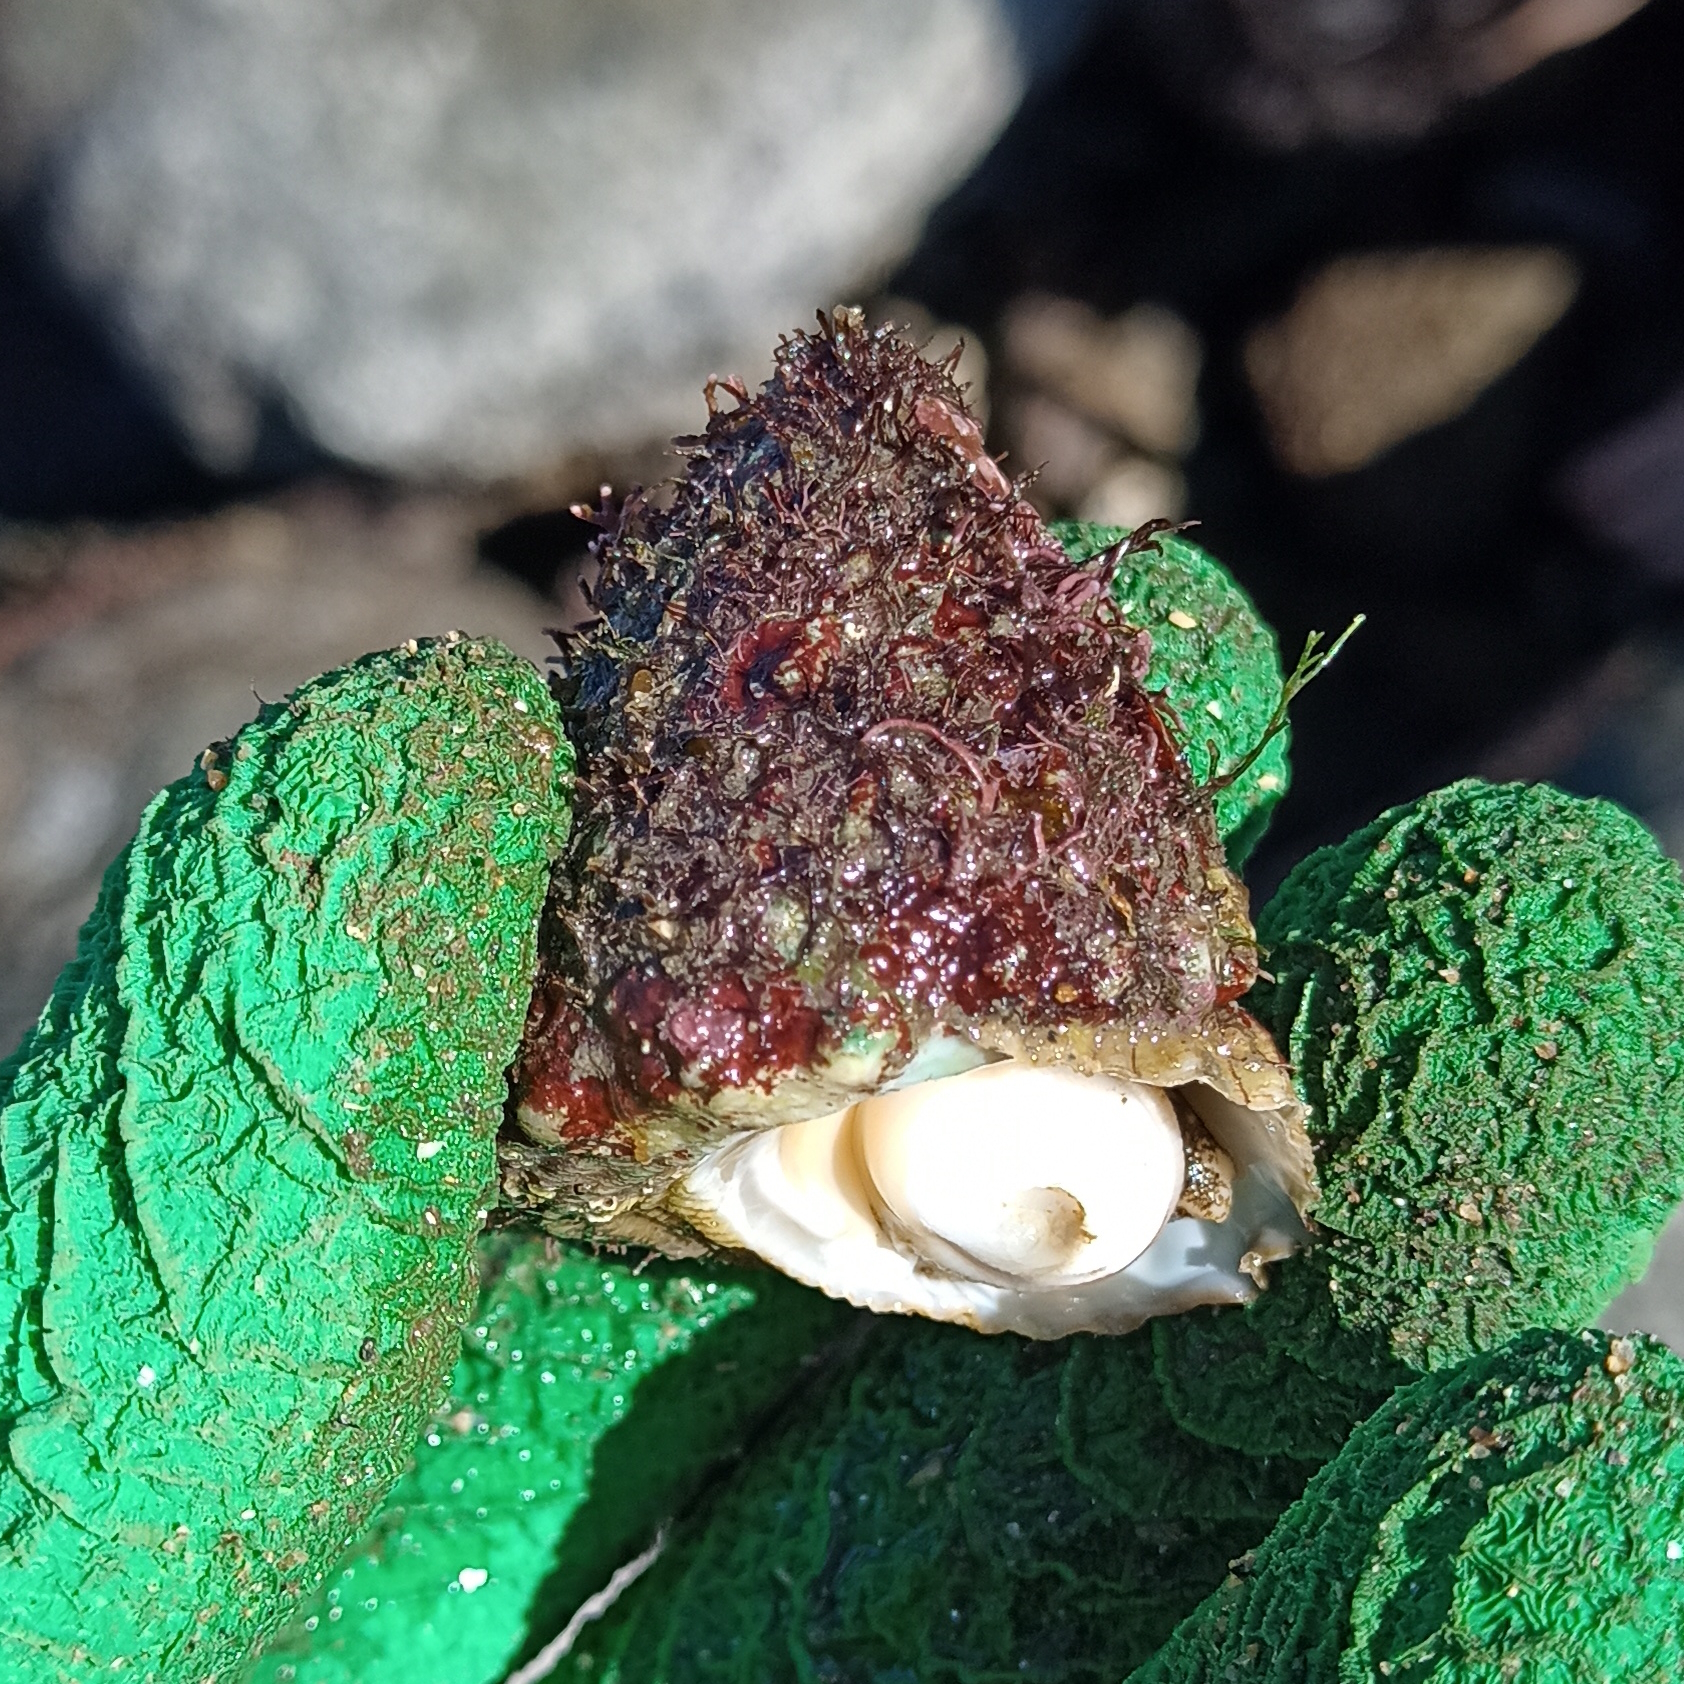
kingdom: Animalia
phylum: Mollusca
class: Gastropoda
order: Trochida
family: Turbinidae
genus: Lithopoma
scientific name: Lithopoma tectum
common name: West indian starsnail
